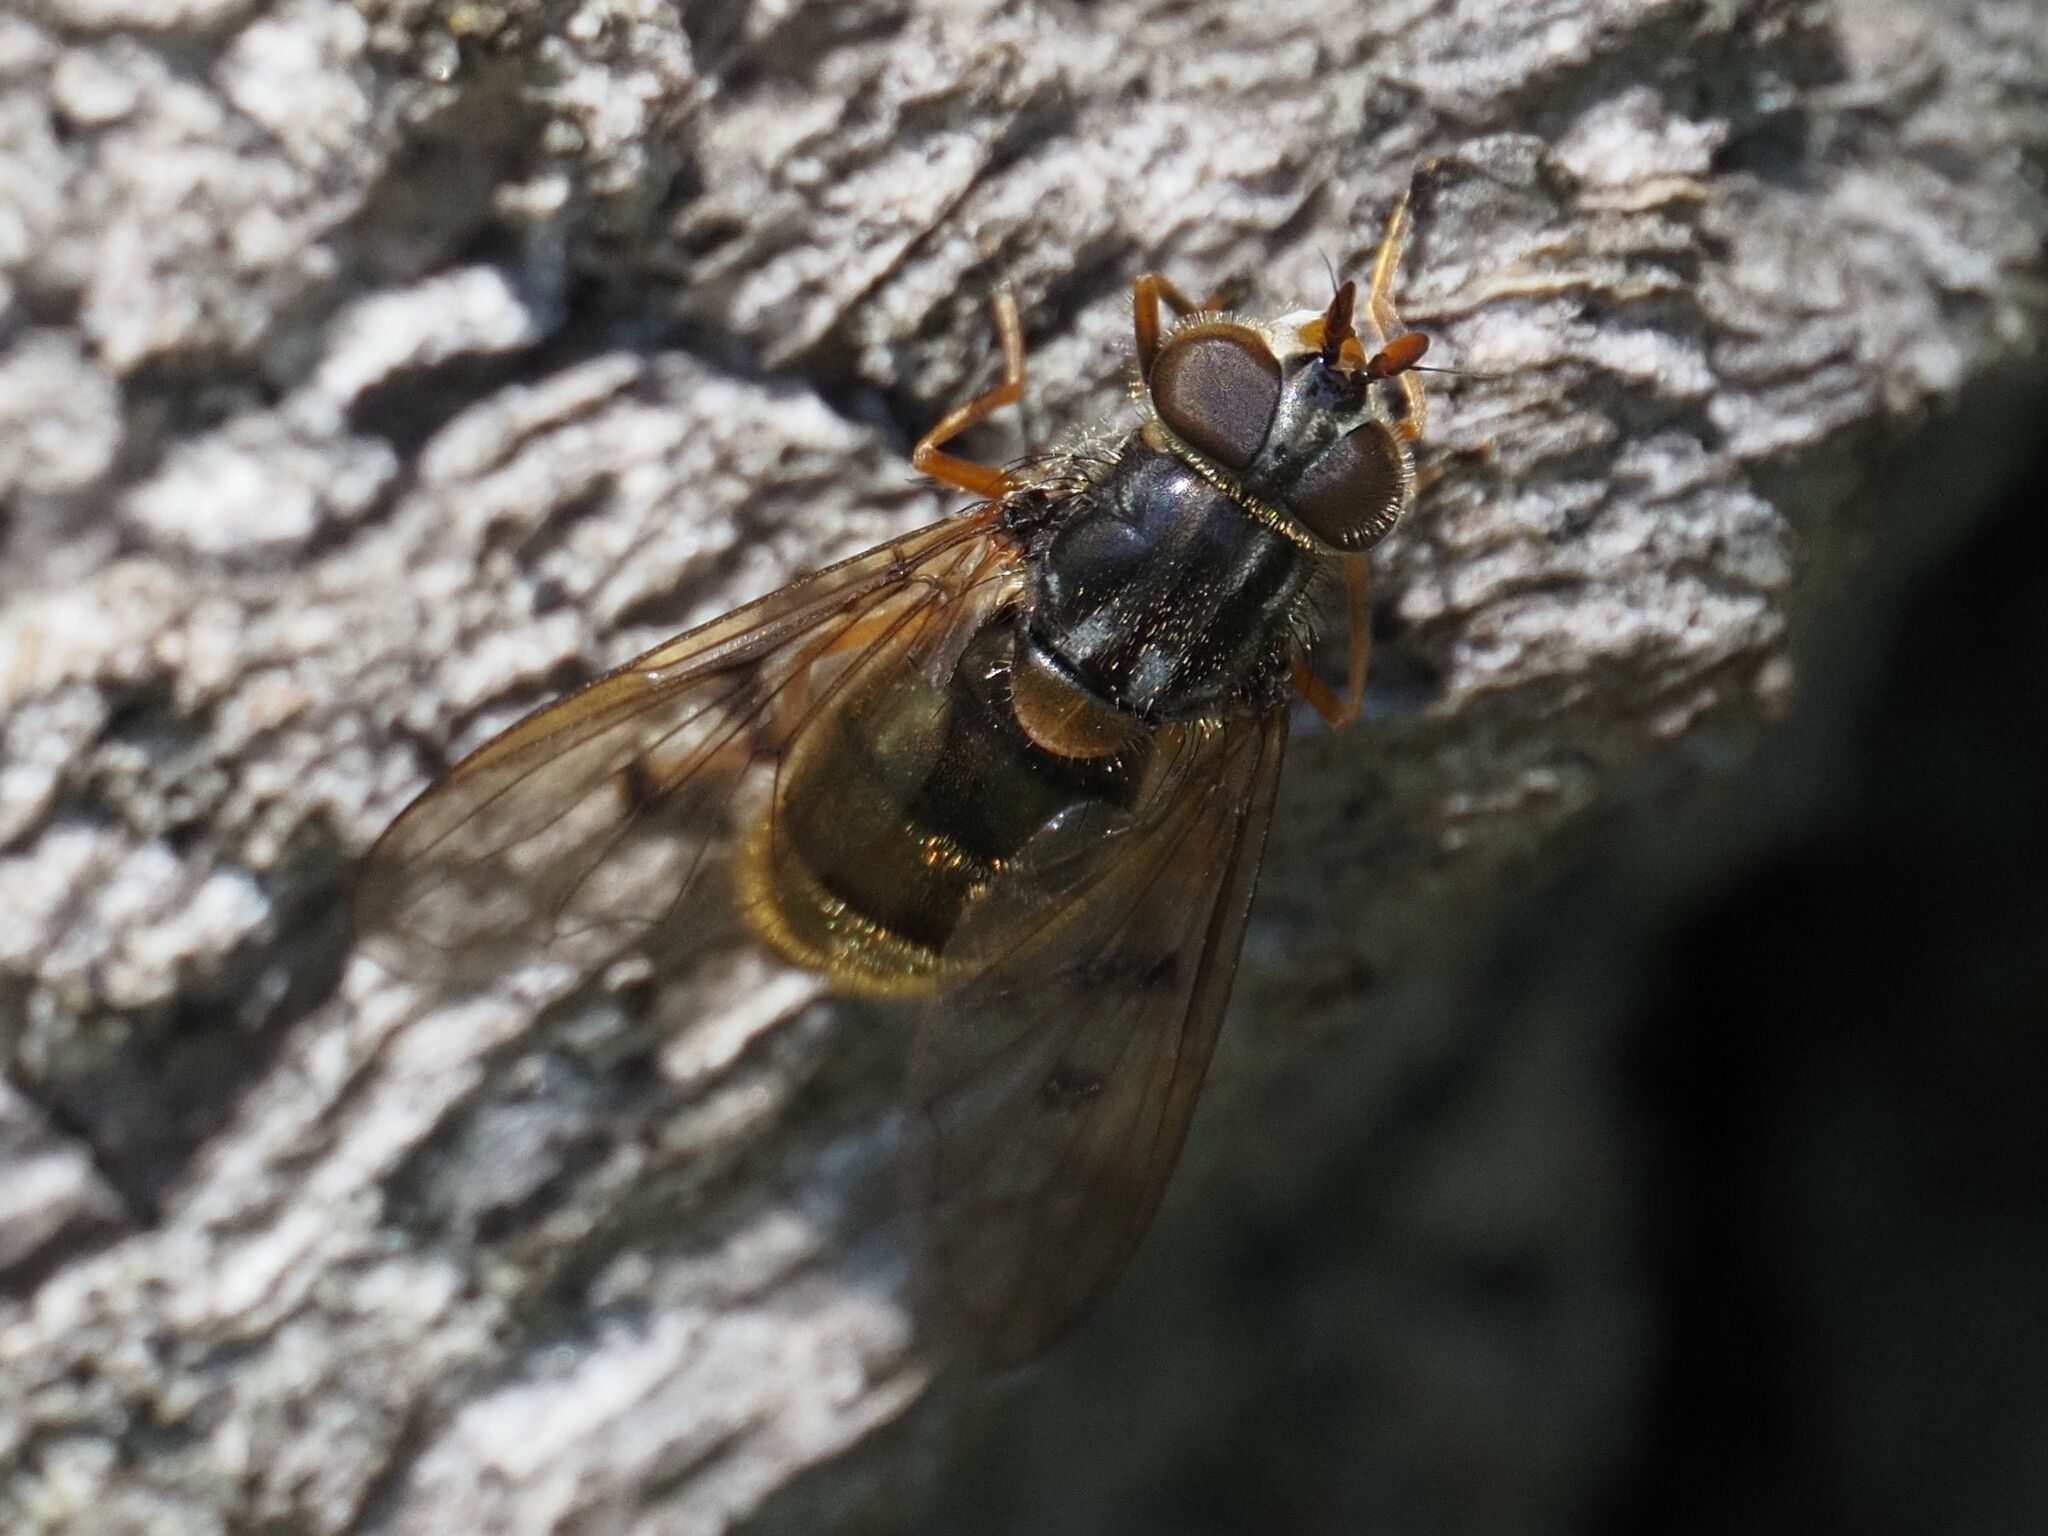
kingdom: Animalia
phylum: Arthropoda
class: Insecta
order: Diptera
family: Syrphidae
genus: Ferdinandea
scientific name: Ferdinandea cuprea
